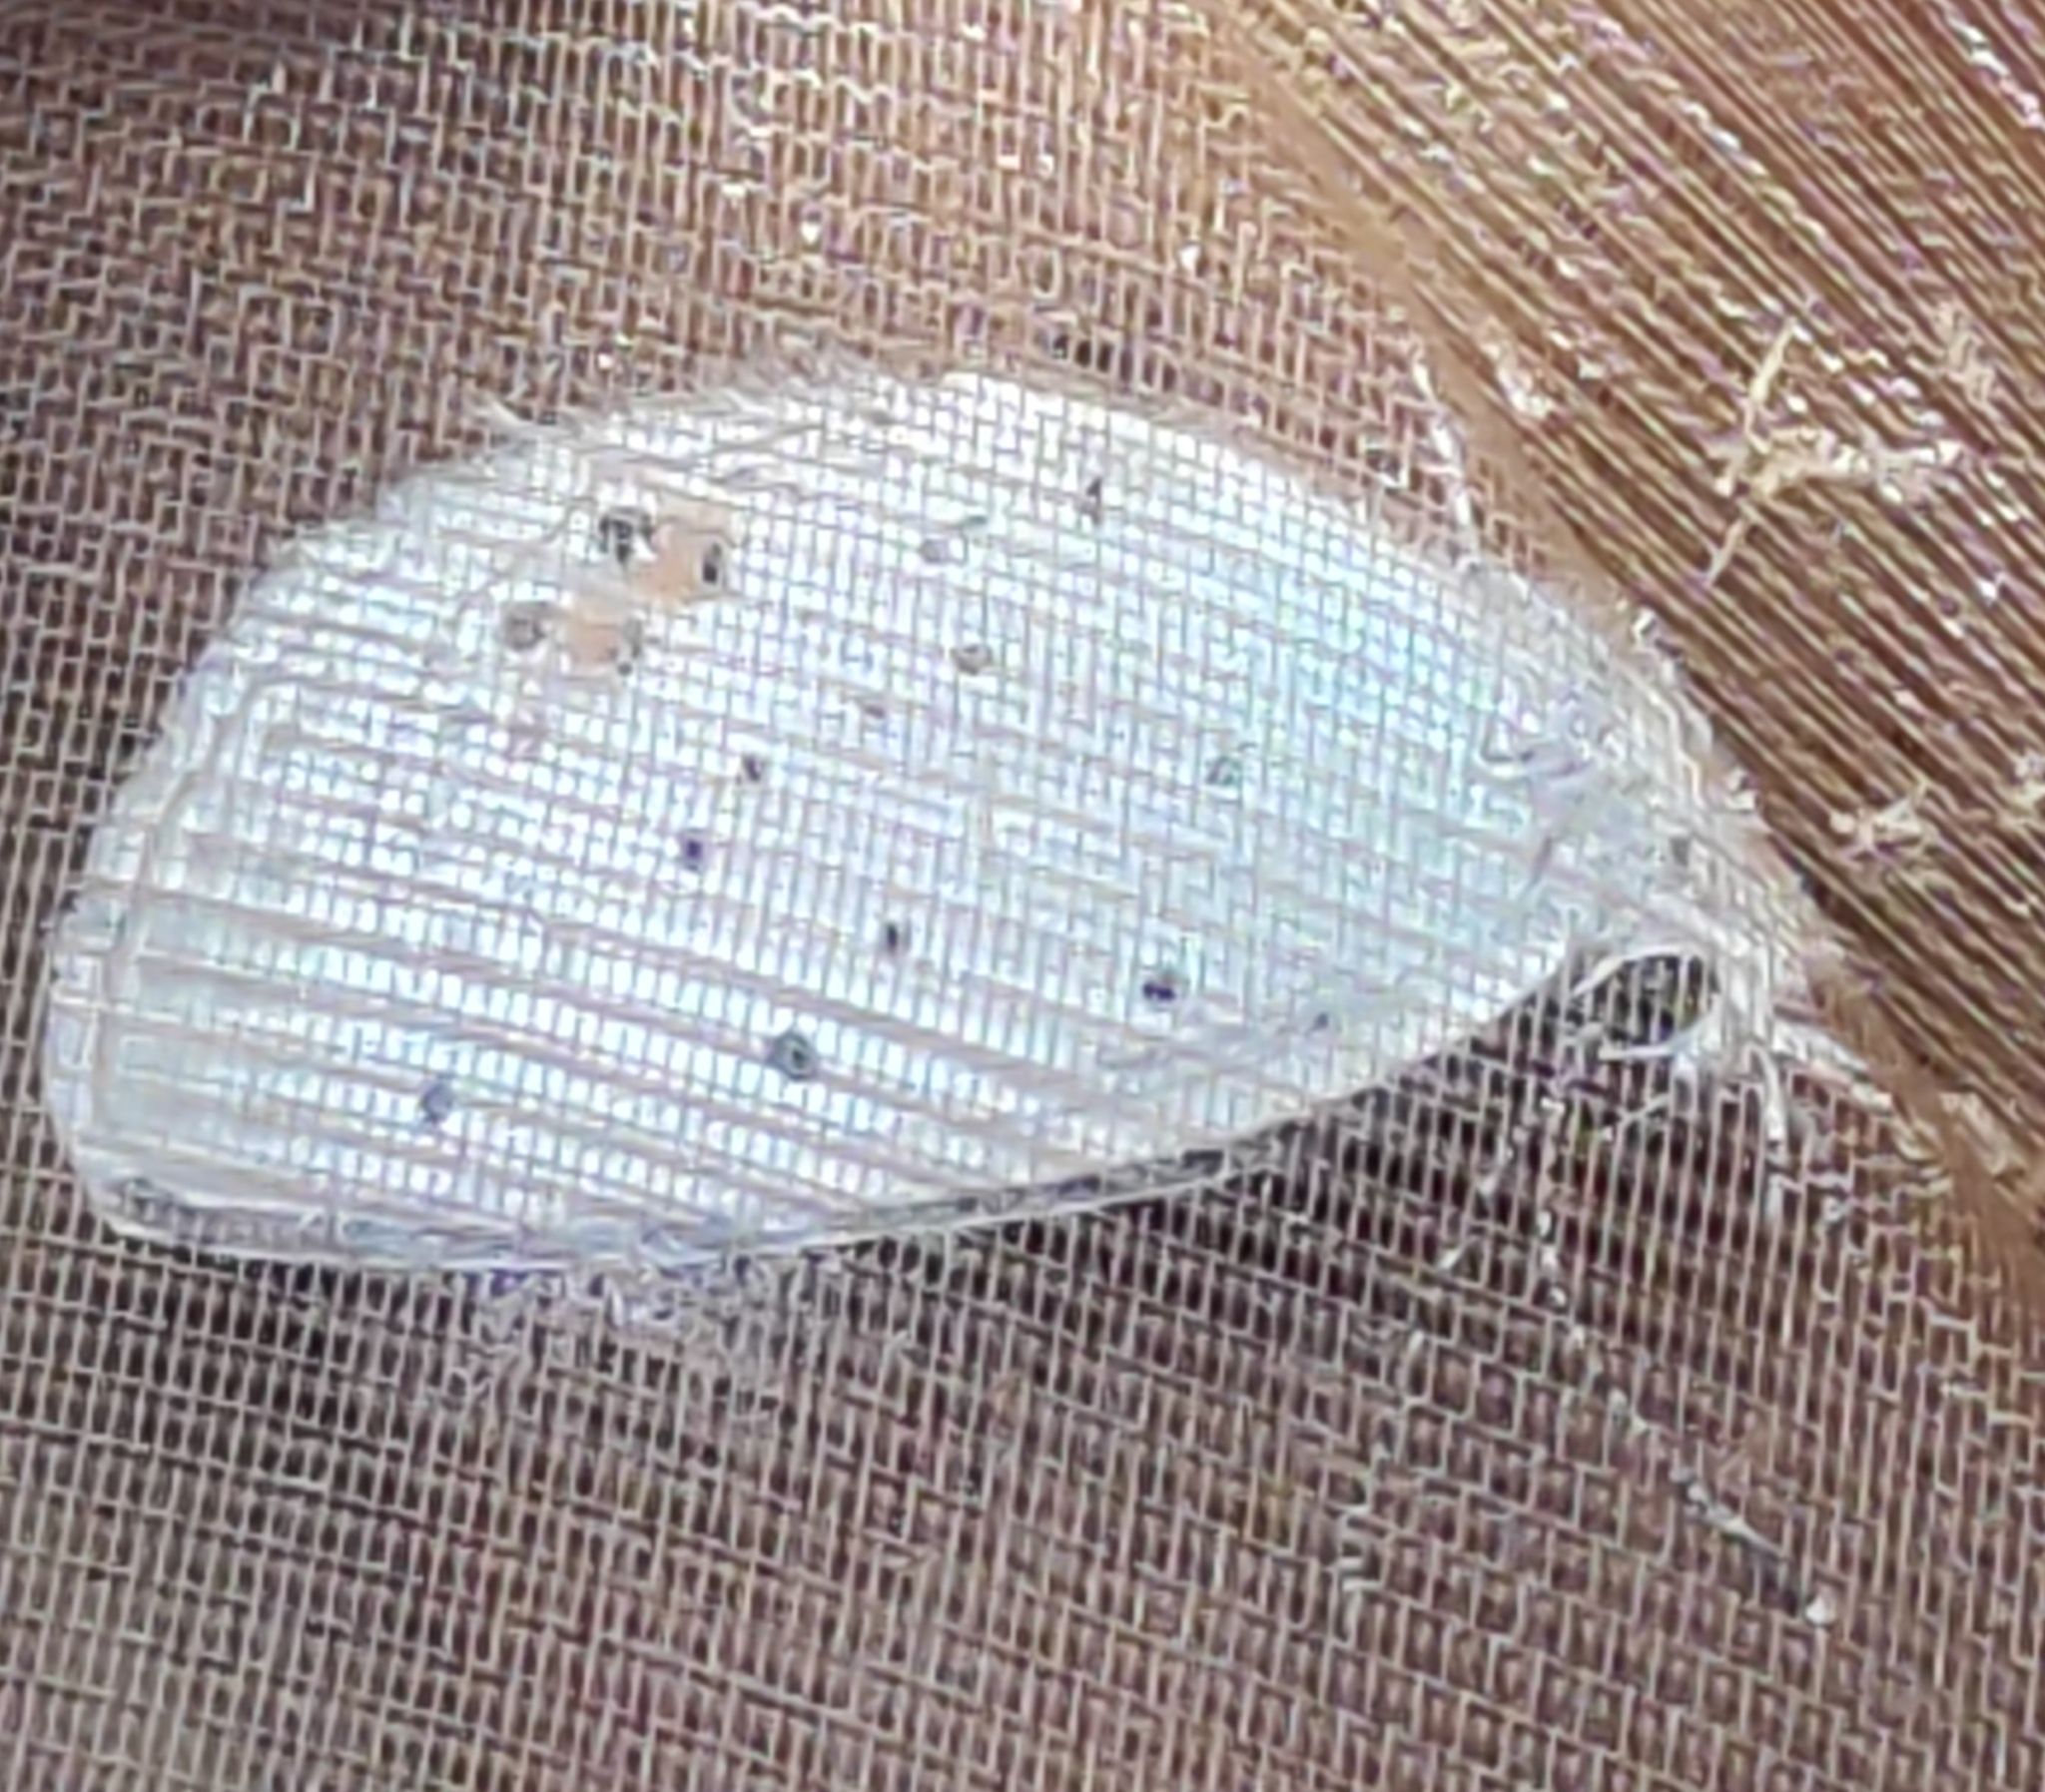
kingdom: Animalia
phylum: Arthropoda
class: Insecta
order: Lepidoptera
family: Lycaenidae
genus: Elkalyce
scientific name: Elkalyce argiades
